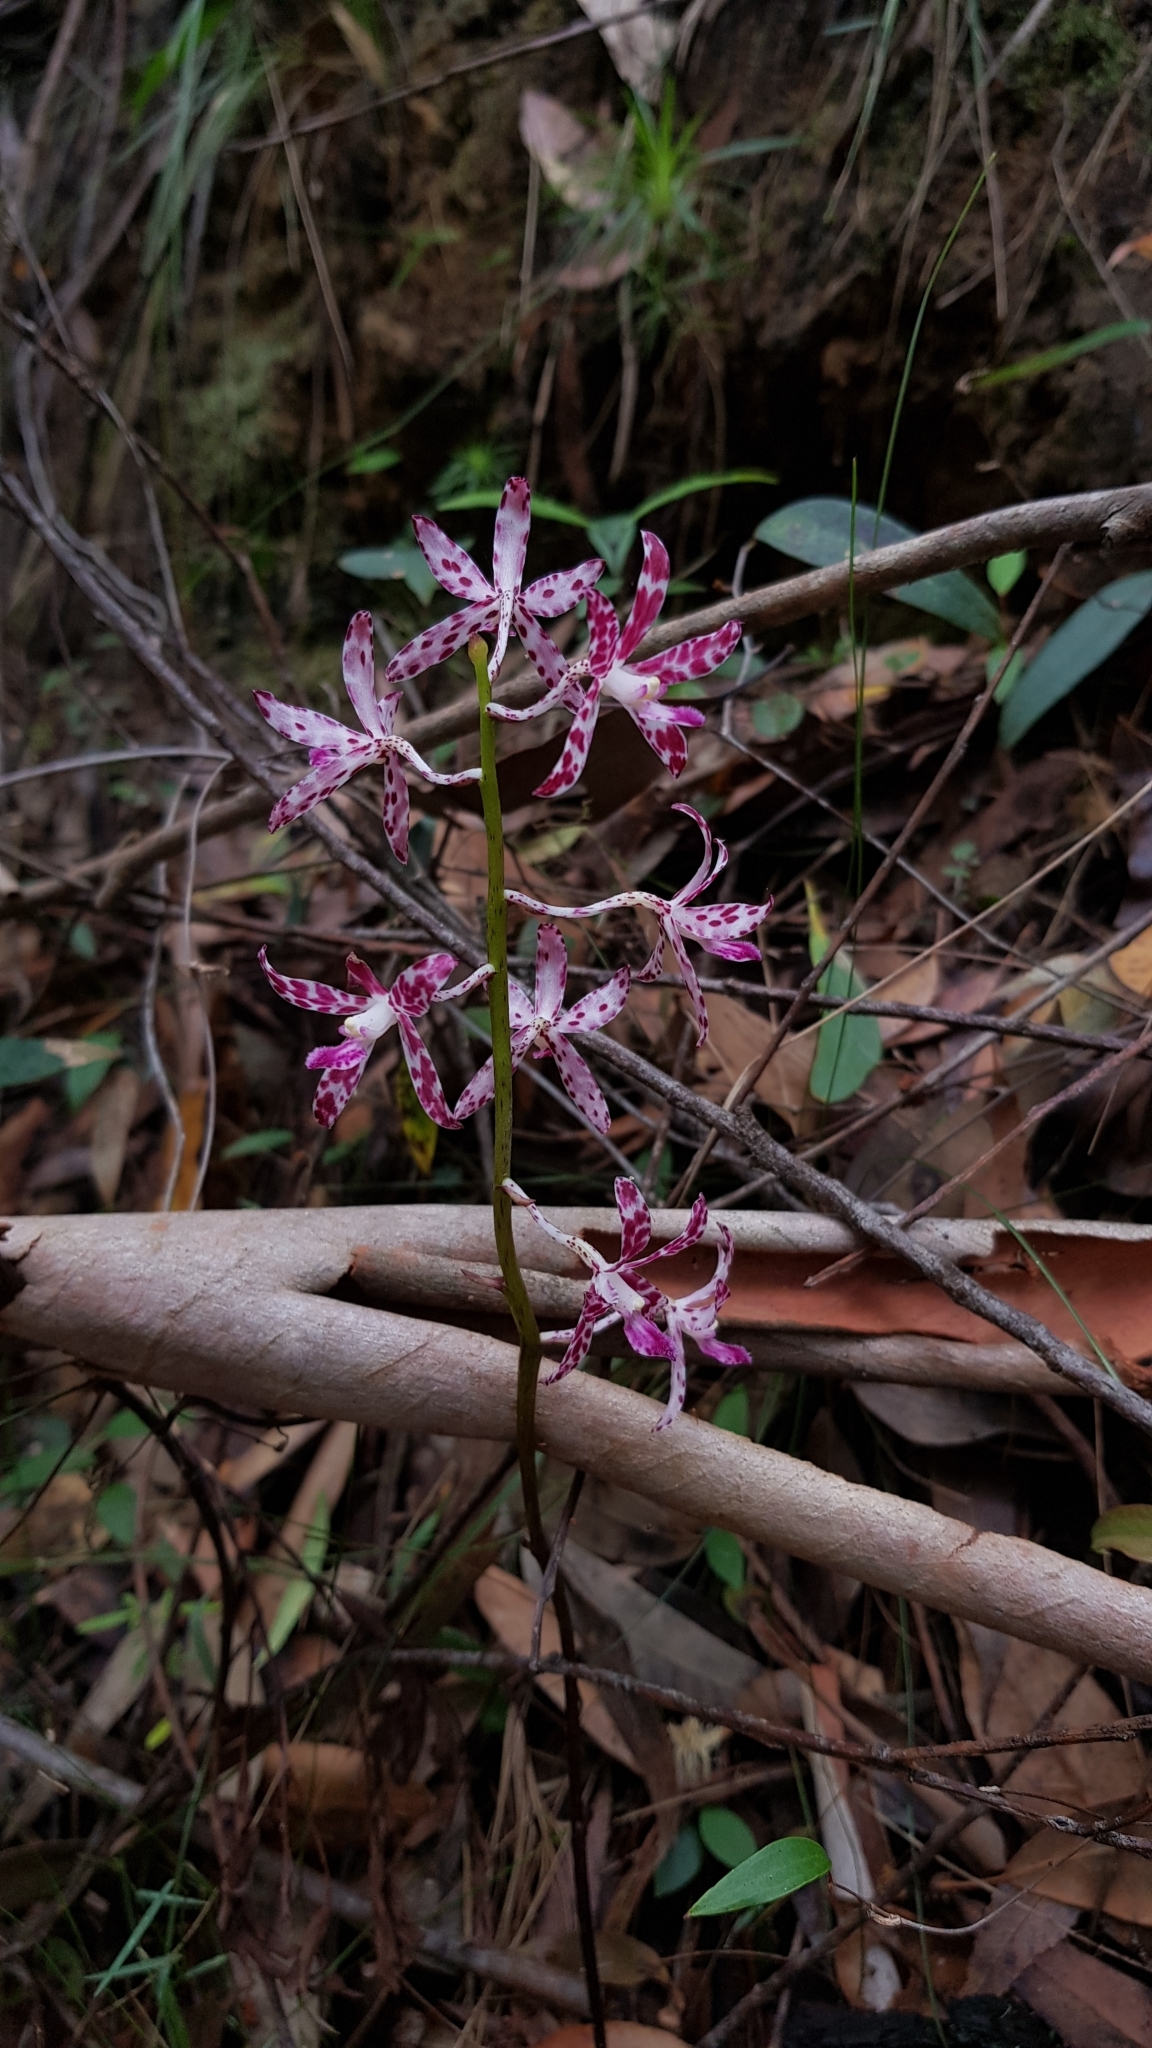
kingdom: Plantae
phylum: Tracheophyta
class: Liliopsida
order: Asparagales
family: Orchidaceae
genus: Dipodium
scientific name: Dipodium variegatum
